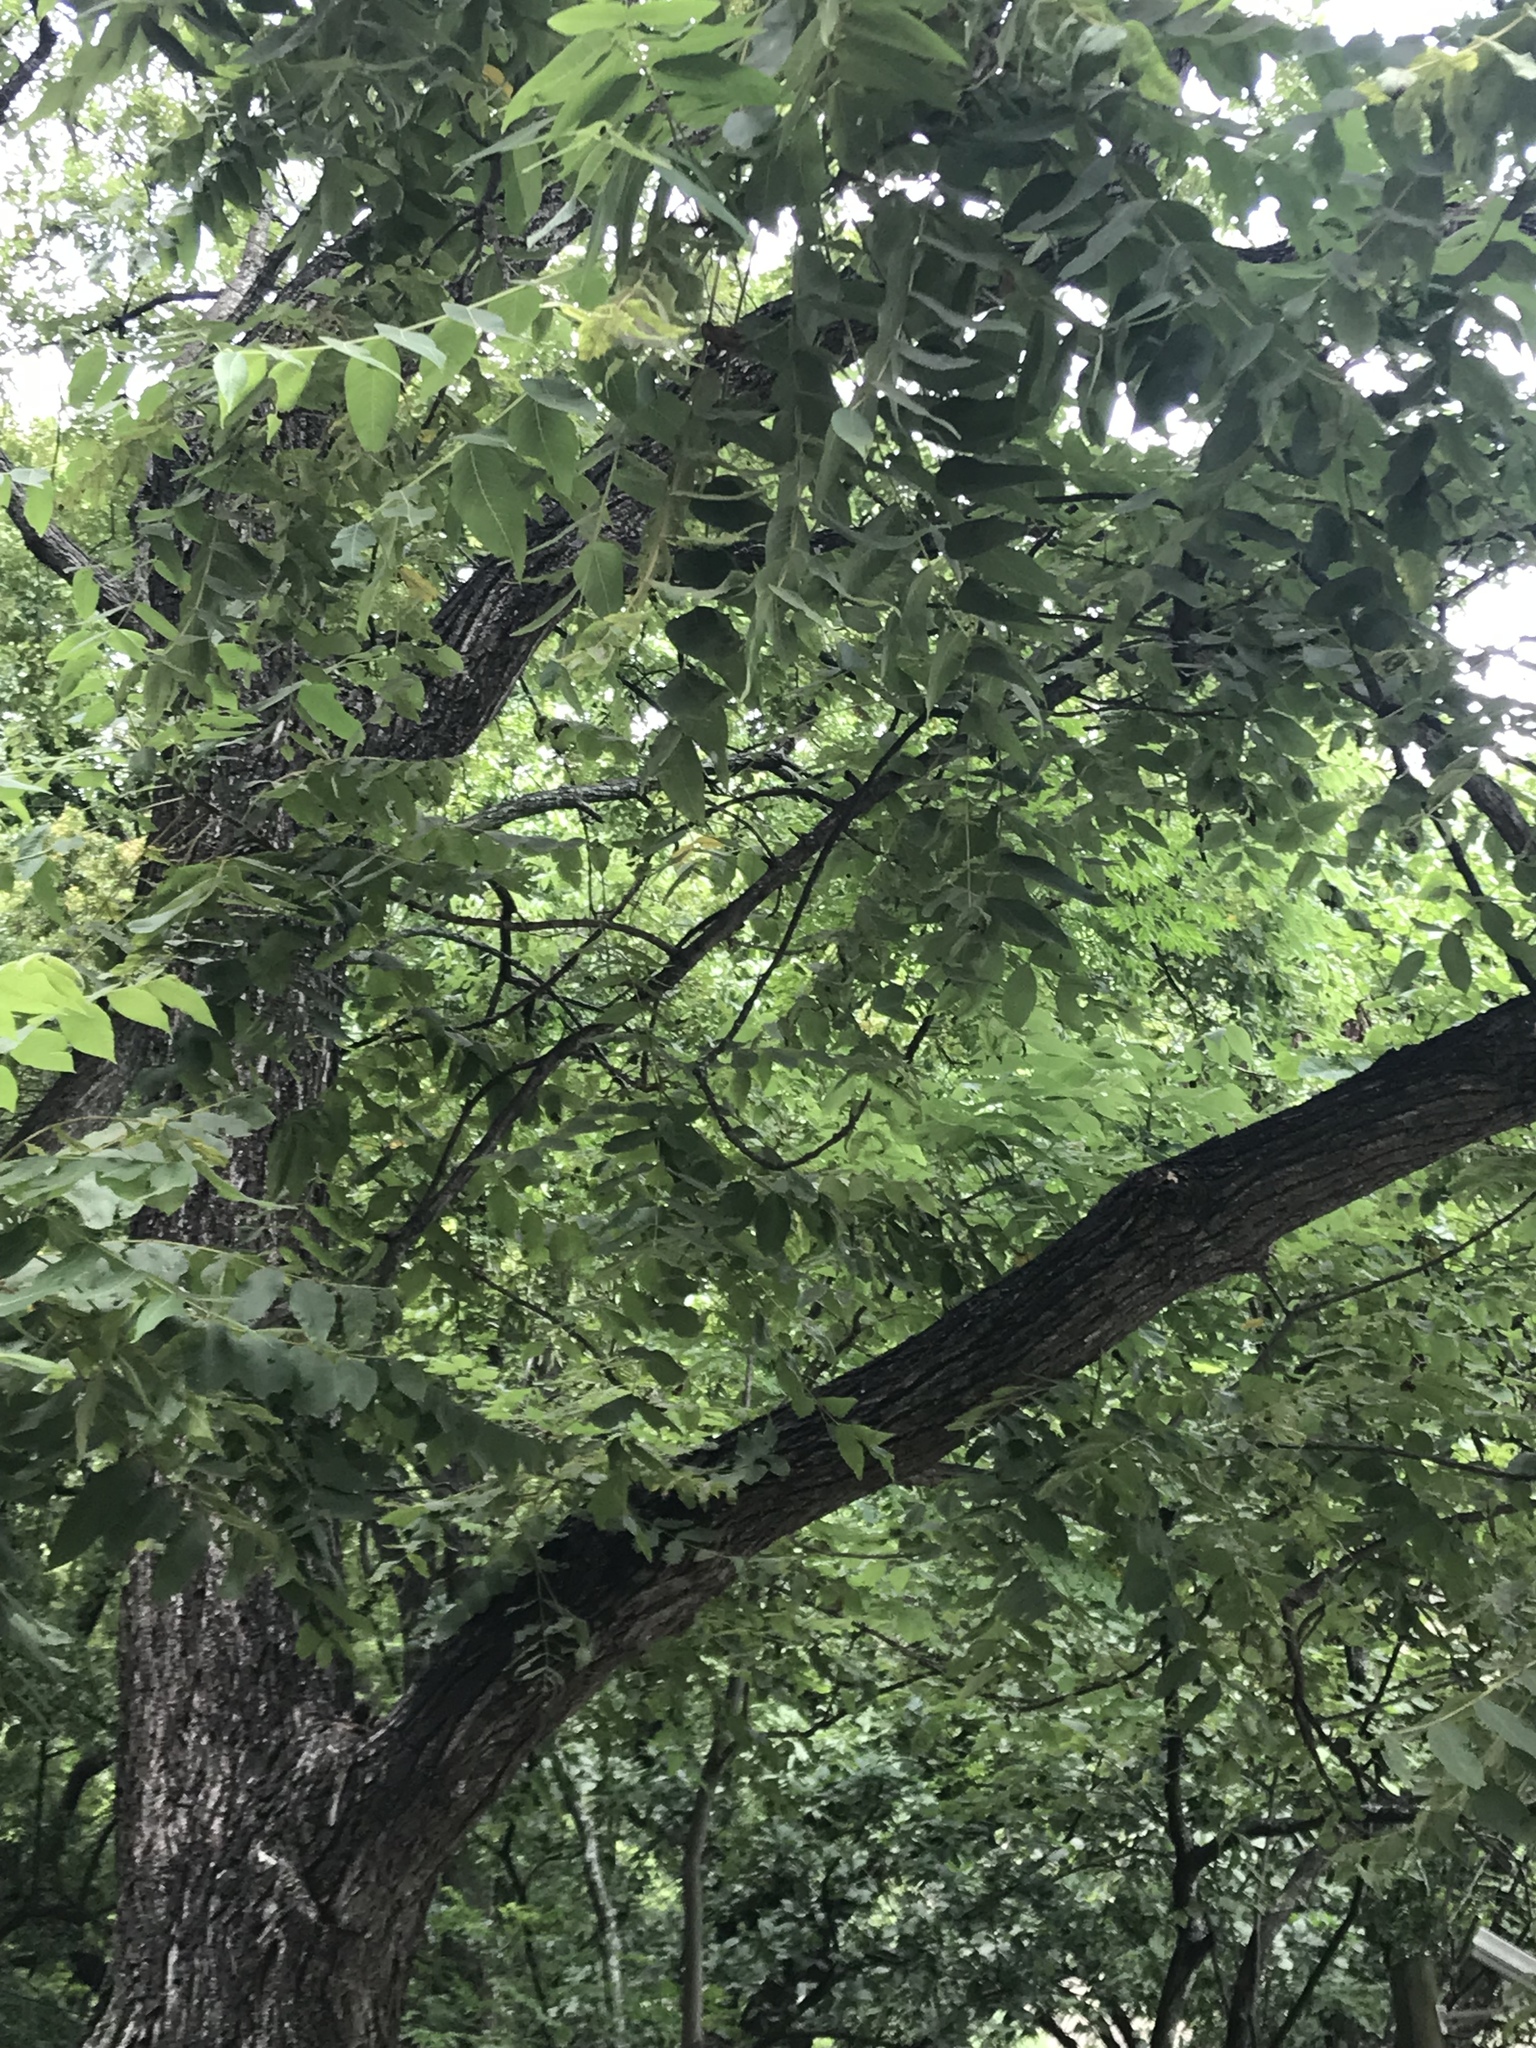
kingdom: Plantae
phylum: Tracheophyta
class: Magnoliopsida
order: Fagales
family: Juglandaceae
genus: Juglans
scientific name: Juglans mollis
